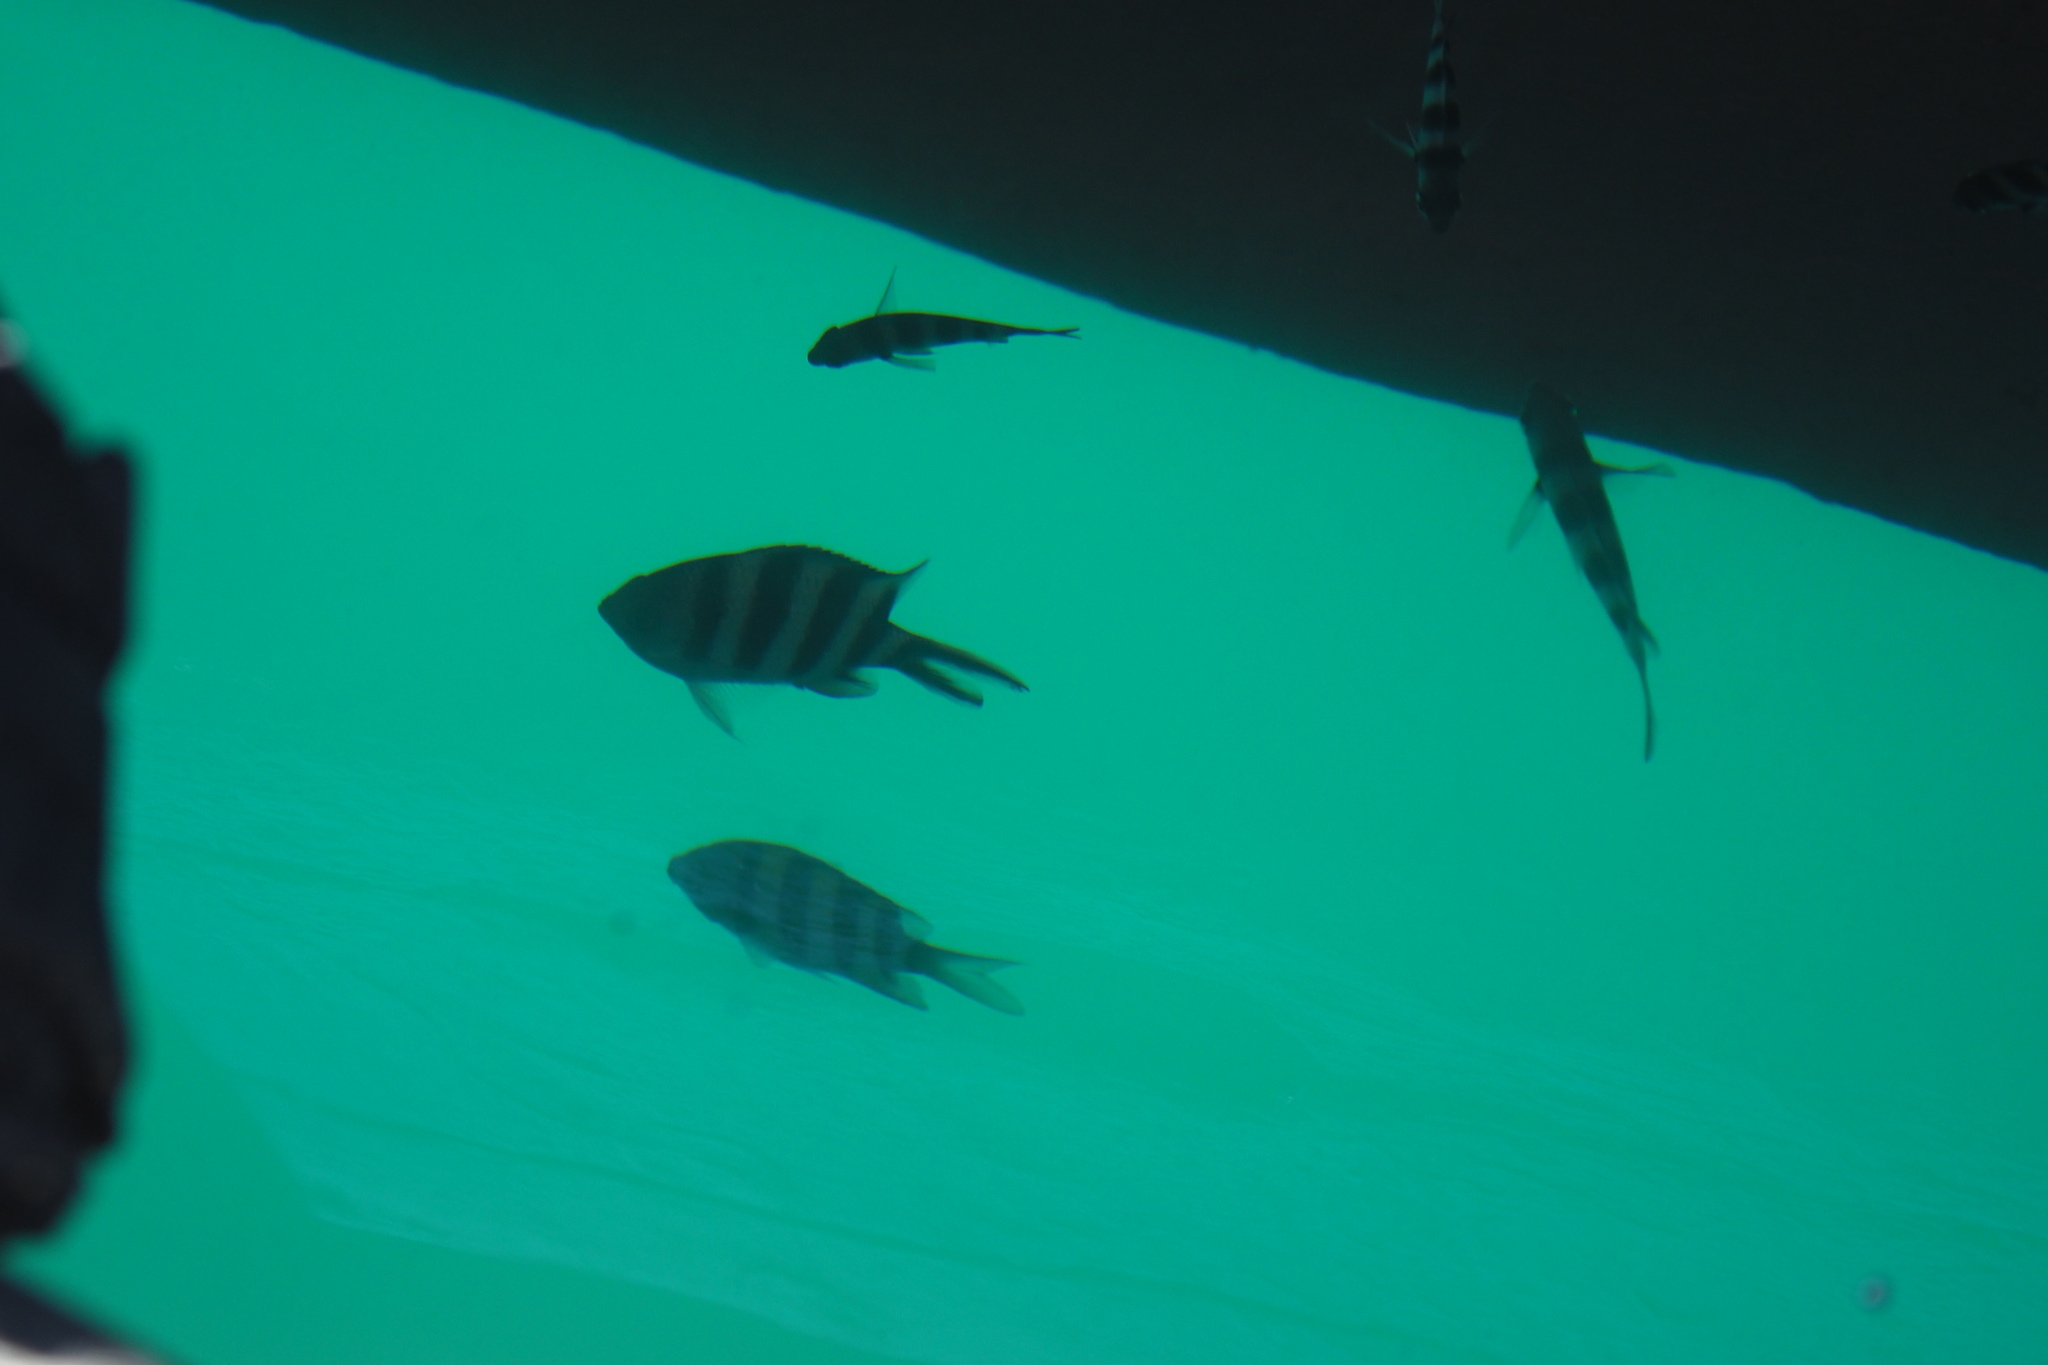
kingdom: Animalia
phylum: Chordata
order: Perciformes
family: Pomacentridae
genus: Abudefduf
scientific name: Abudefduf sexfasciatus
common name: Scissortail sergeant
